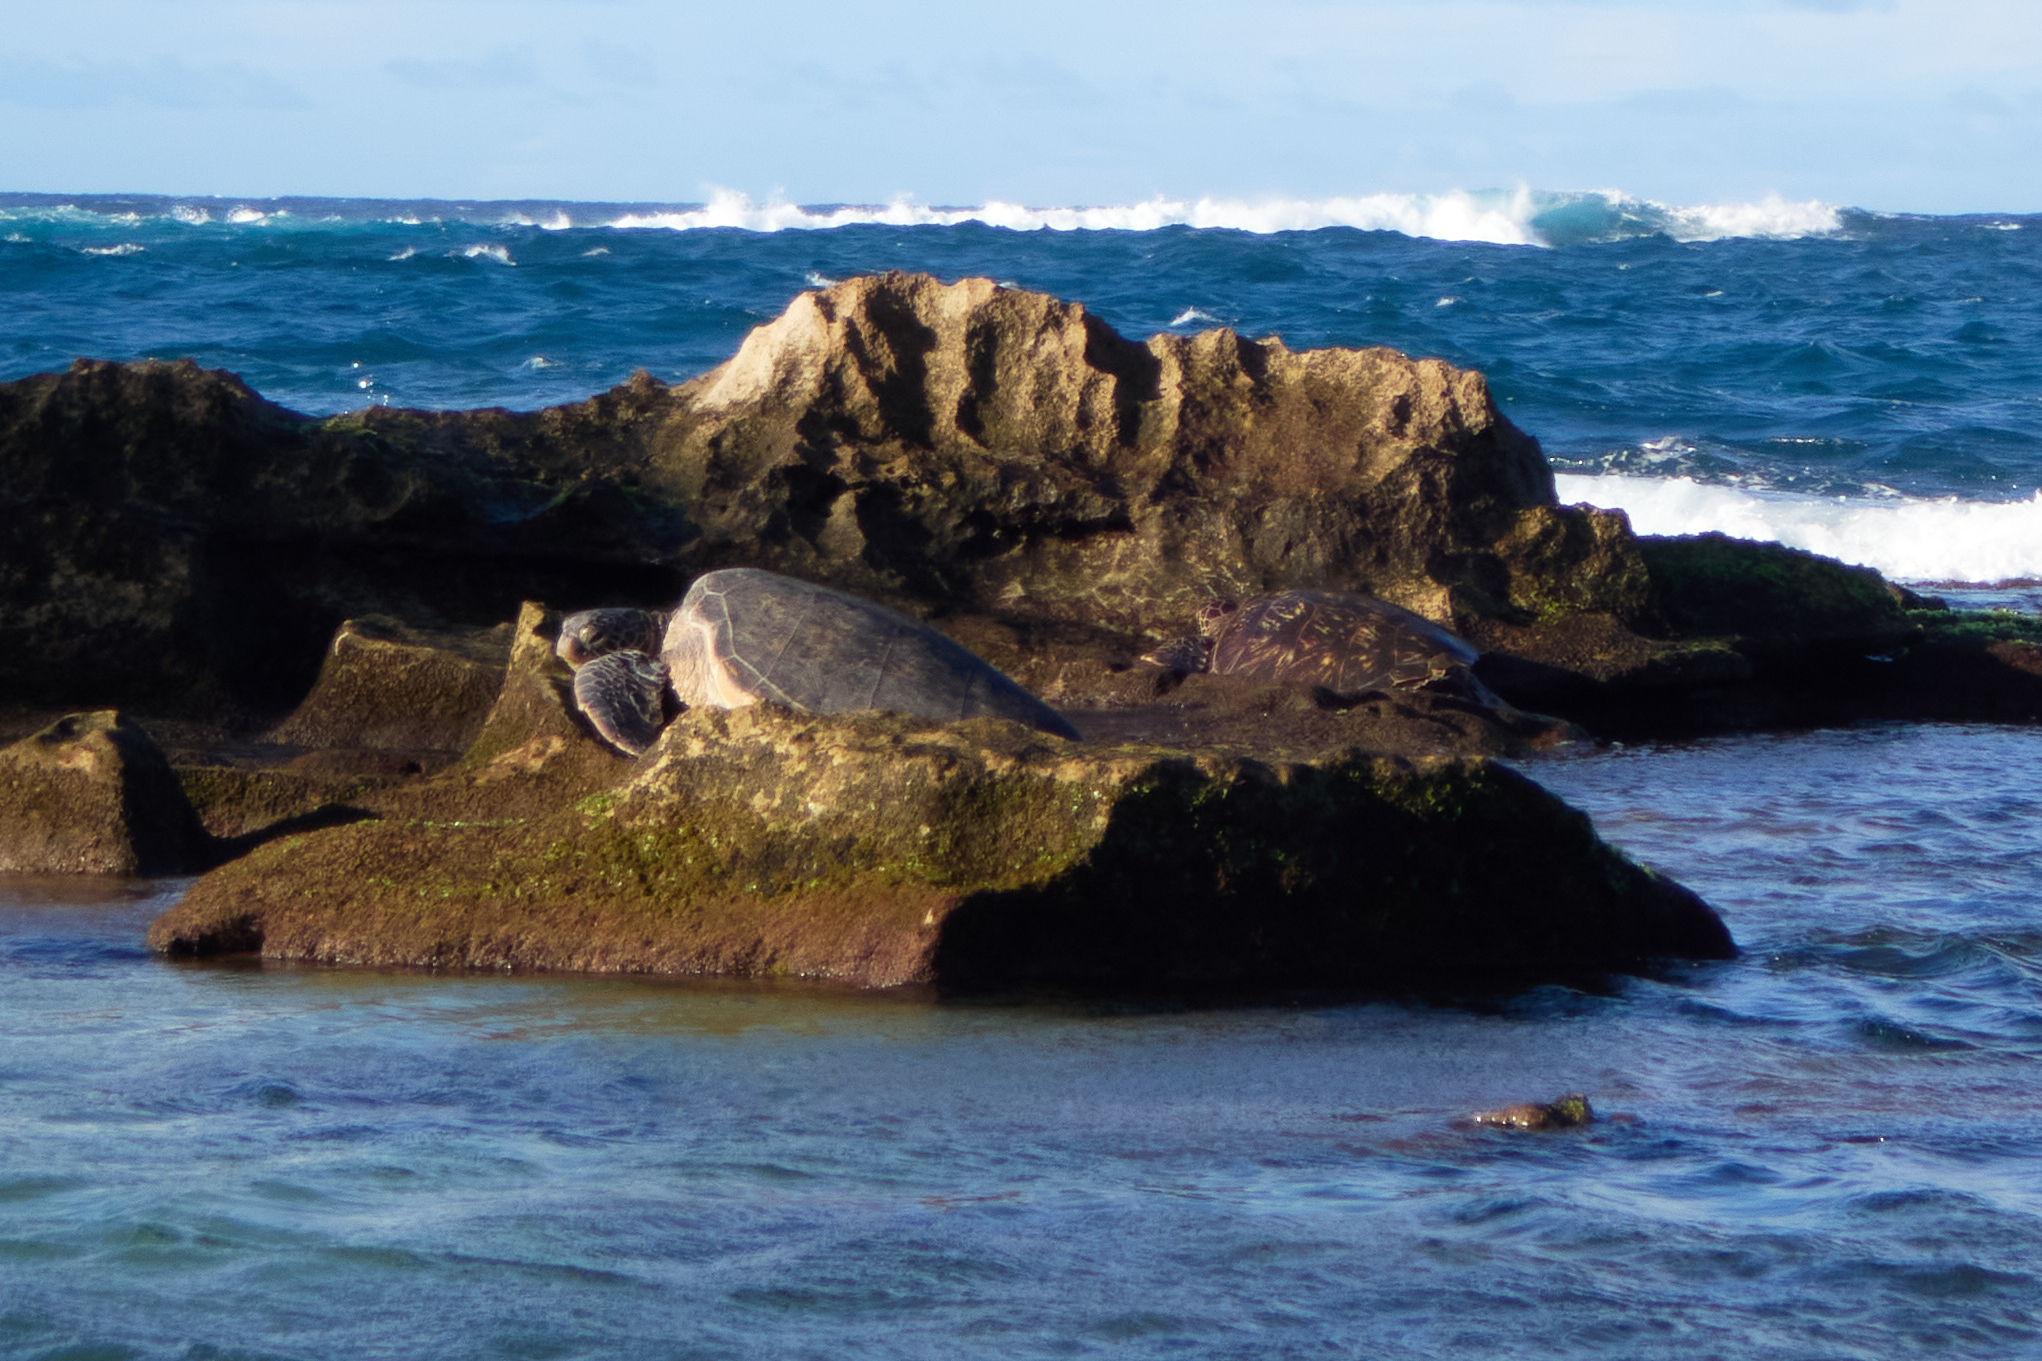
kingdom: Animalia
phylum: Chordata
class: Testudines
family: Cheloniidae
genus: Chelonia
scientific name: Chelonia mydas
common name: Green turtle
